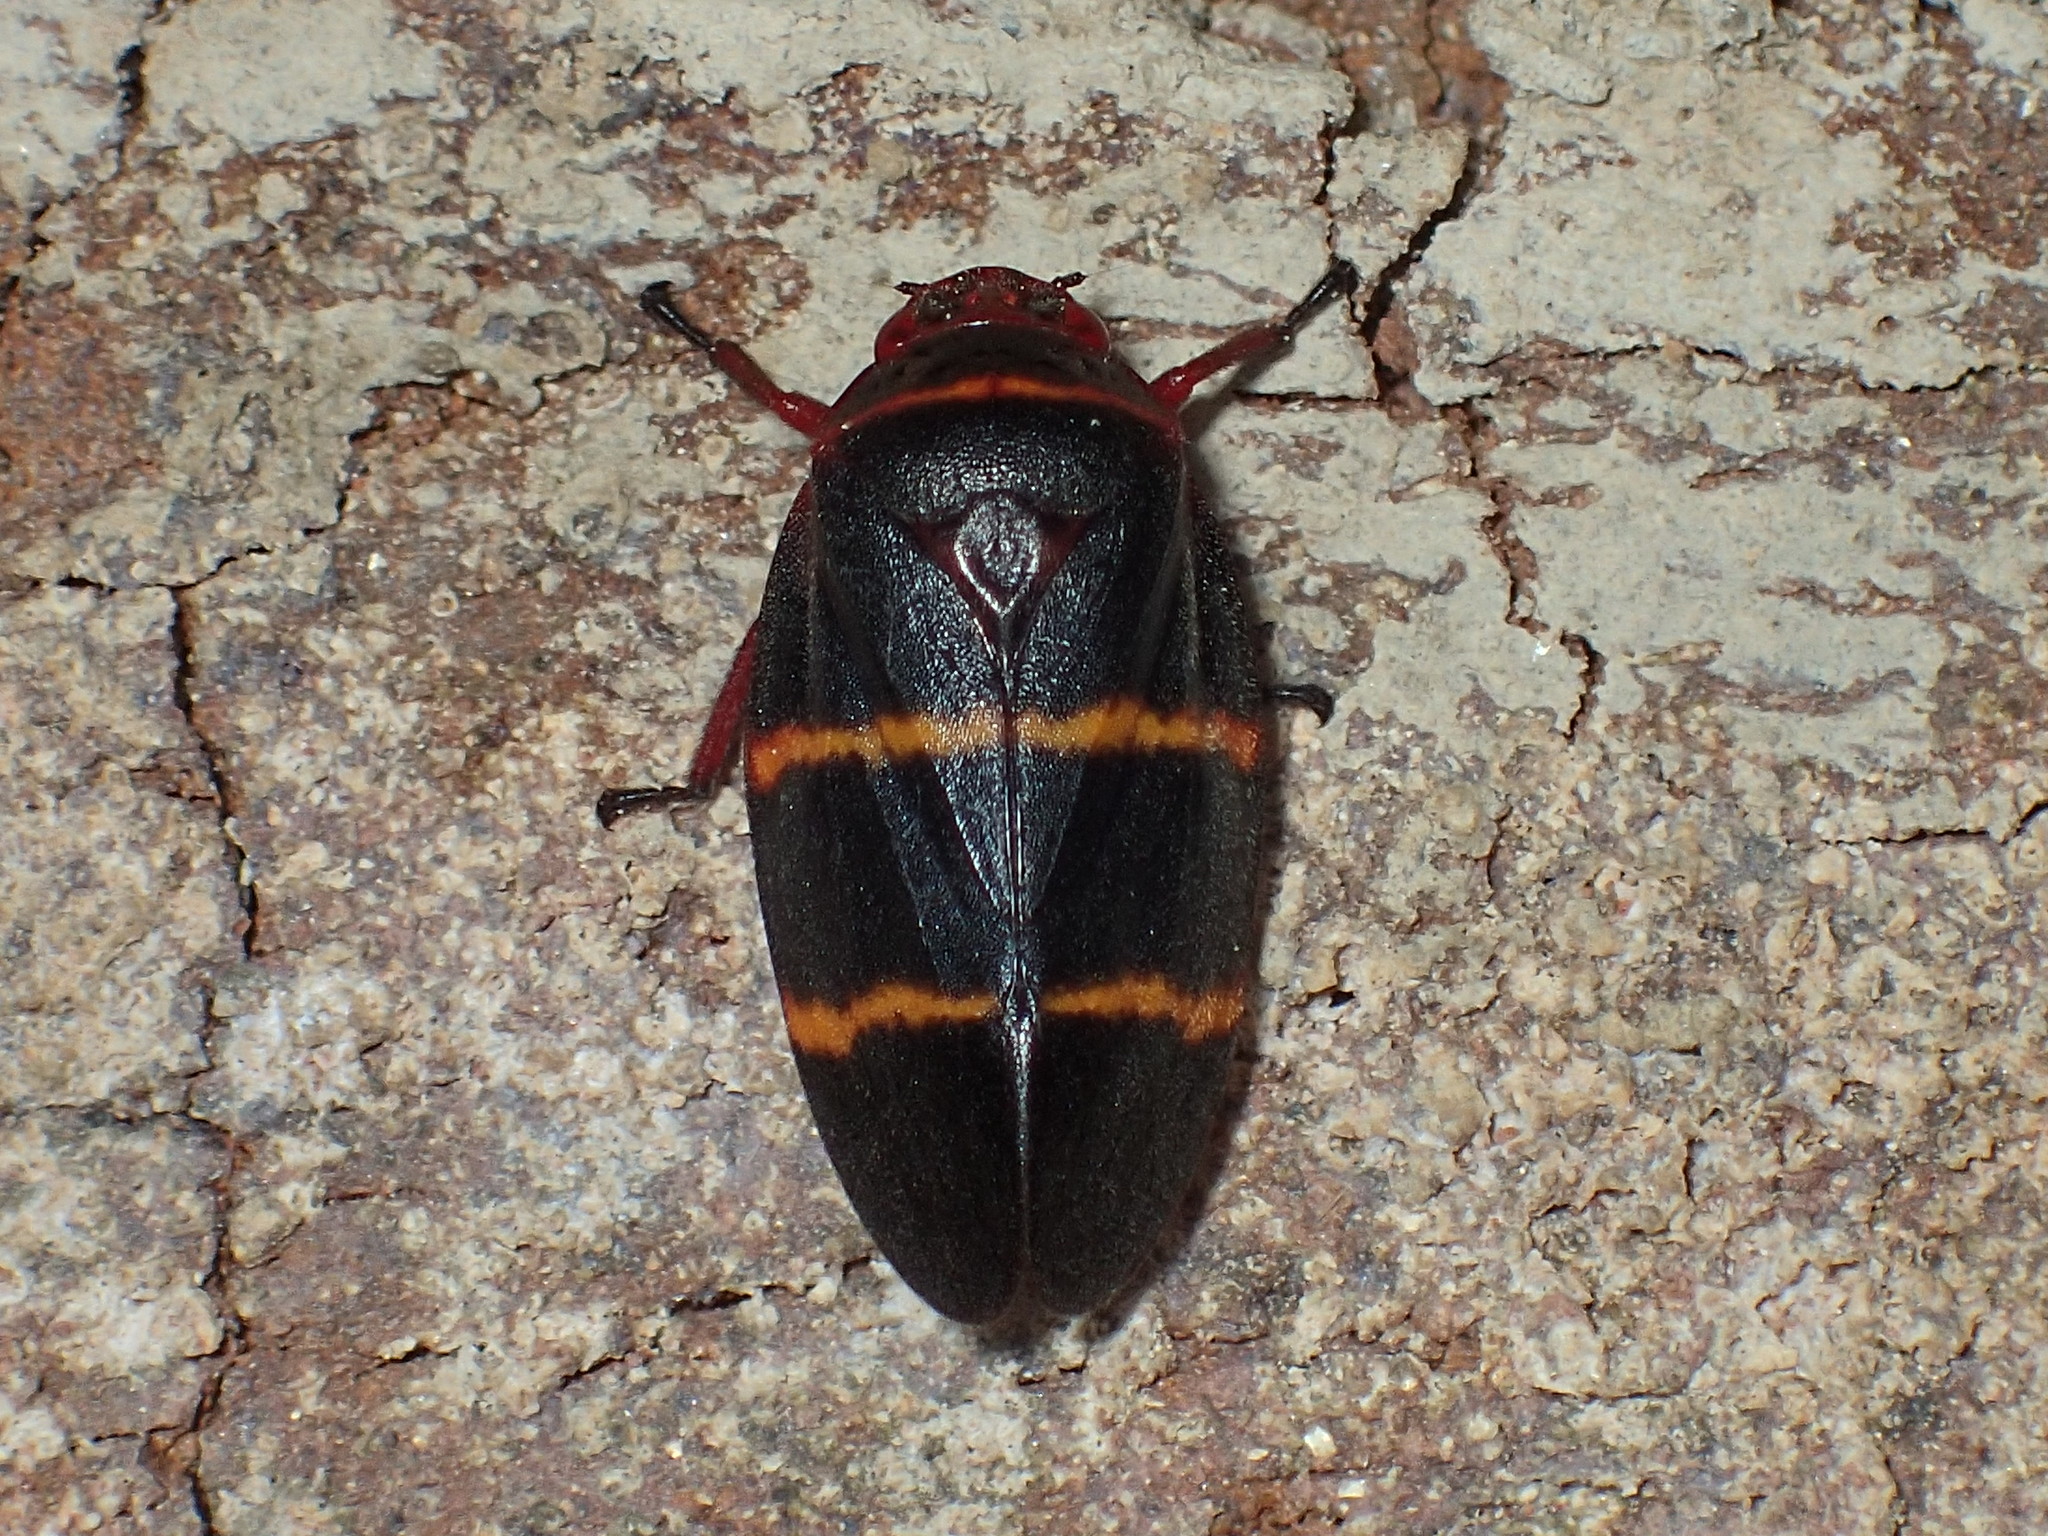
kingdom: Animalia
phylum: Arthropoda
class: Insecta
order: Hemiptera
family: Cercopidae
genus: Prosapia
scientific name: Prosapia bicincta
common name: Twolined spittlebug
